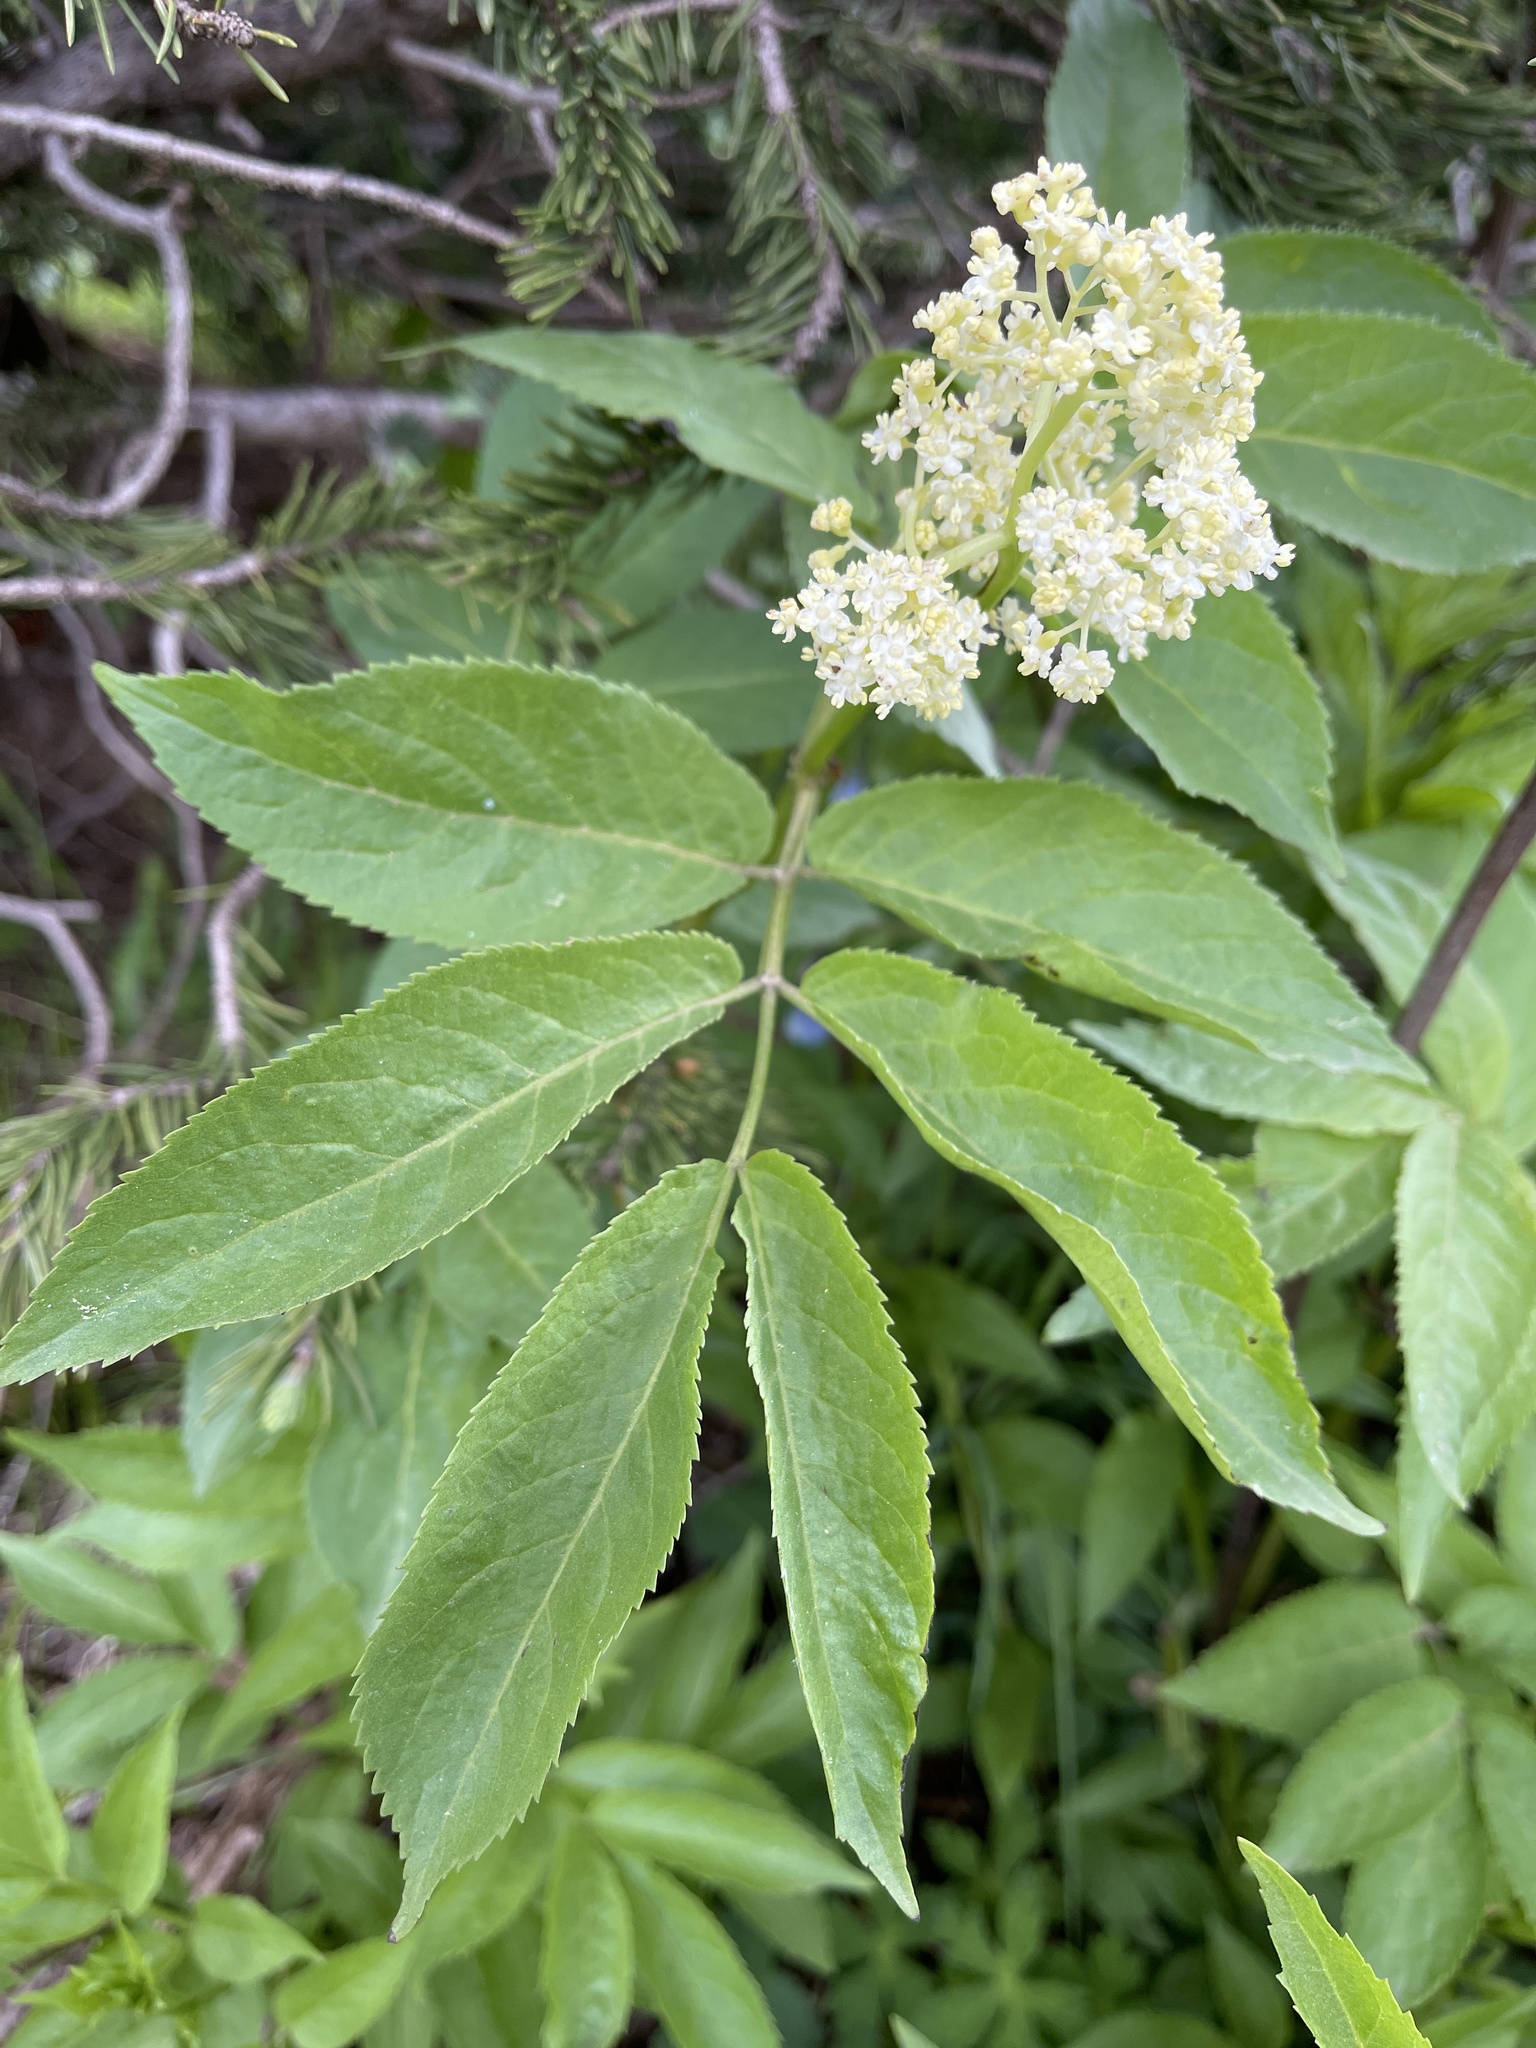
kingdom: Plantae
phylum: Tracheophyta
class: Magnoliopsida
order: Dipsacales
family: Viburnaceae
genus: Sambucus
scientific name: Sambucus racemosa
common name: Red-berried elder
